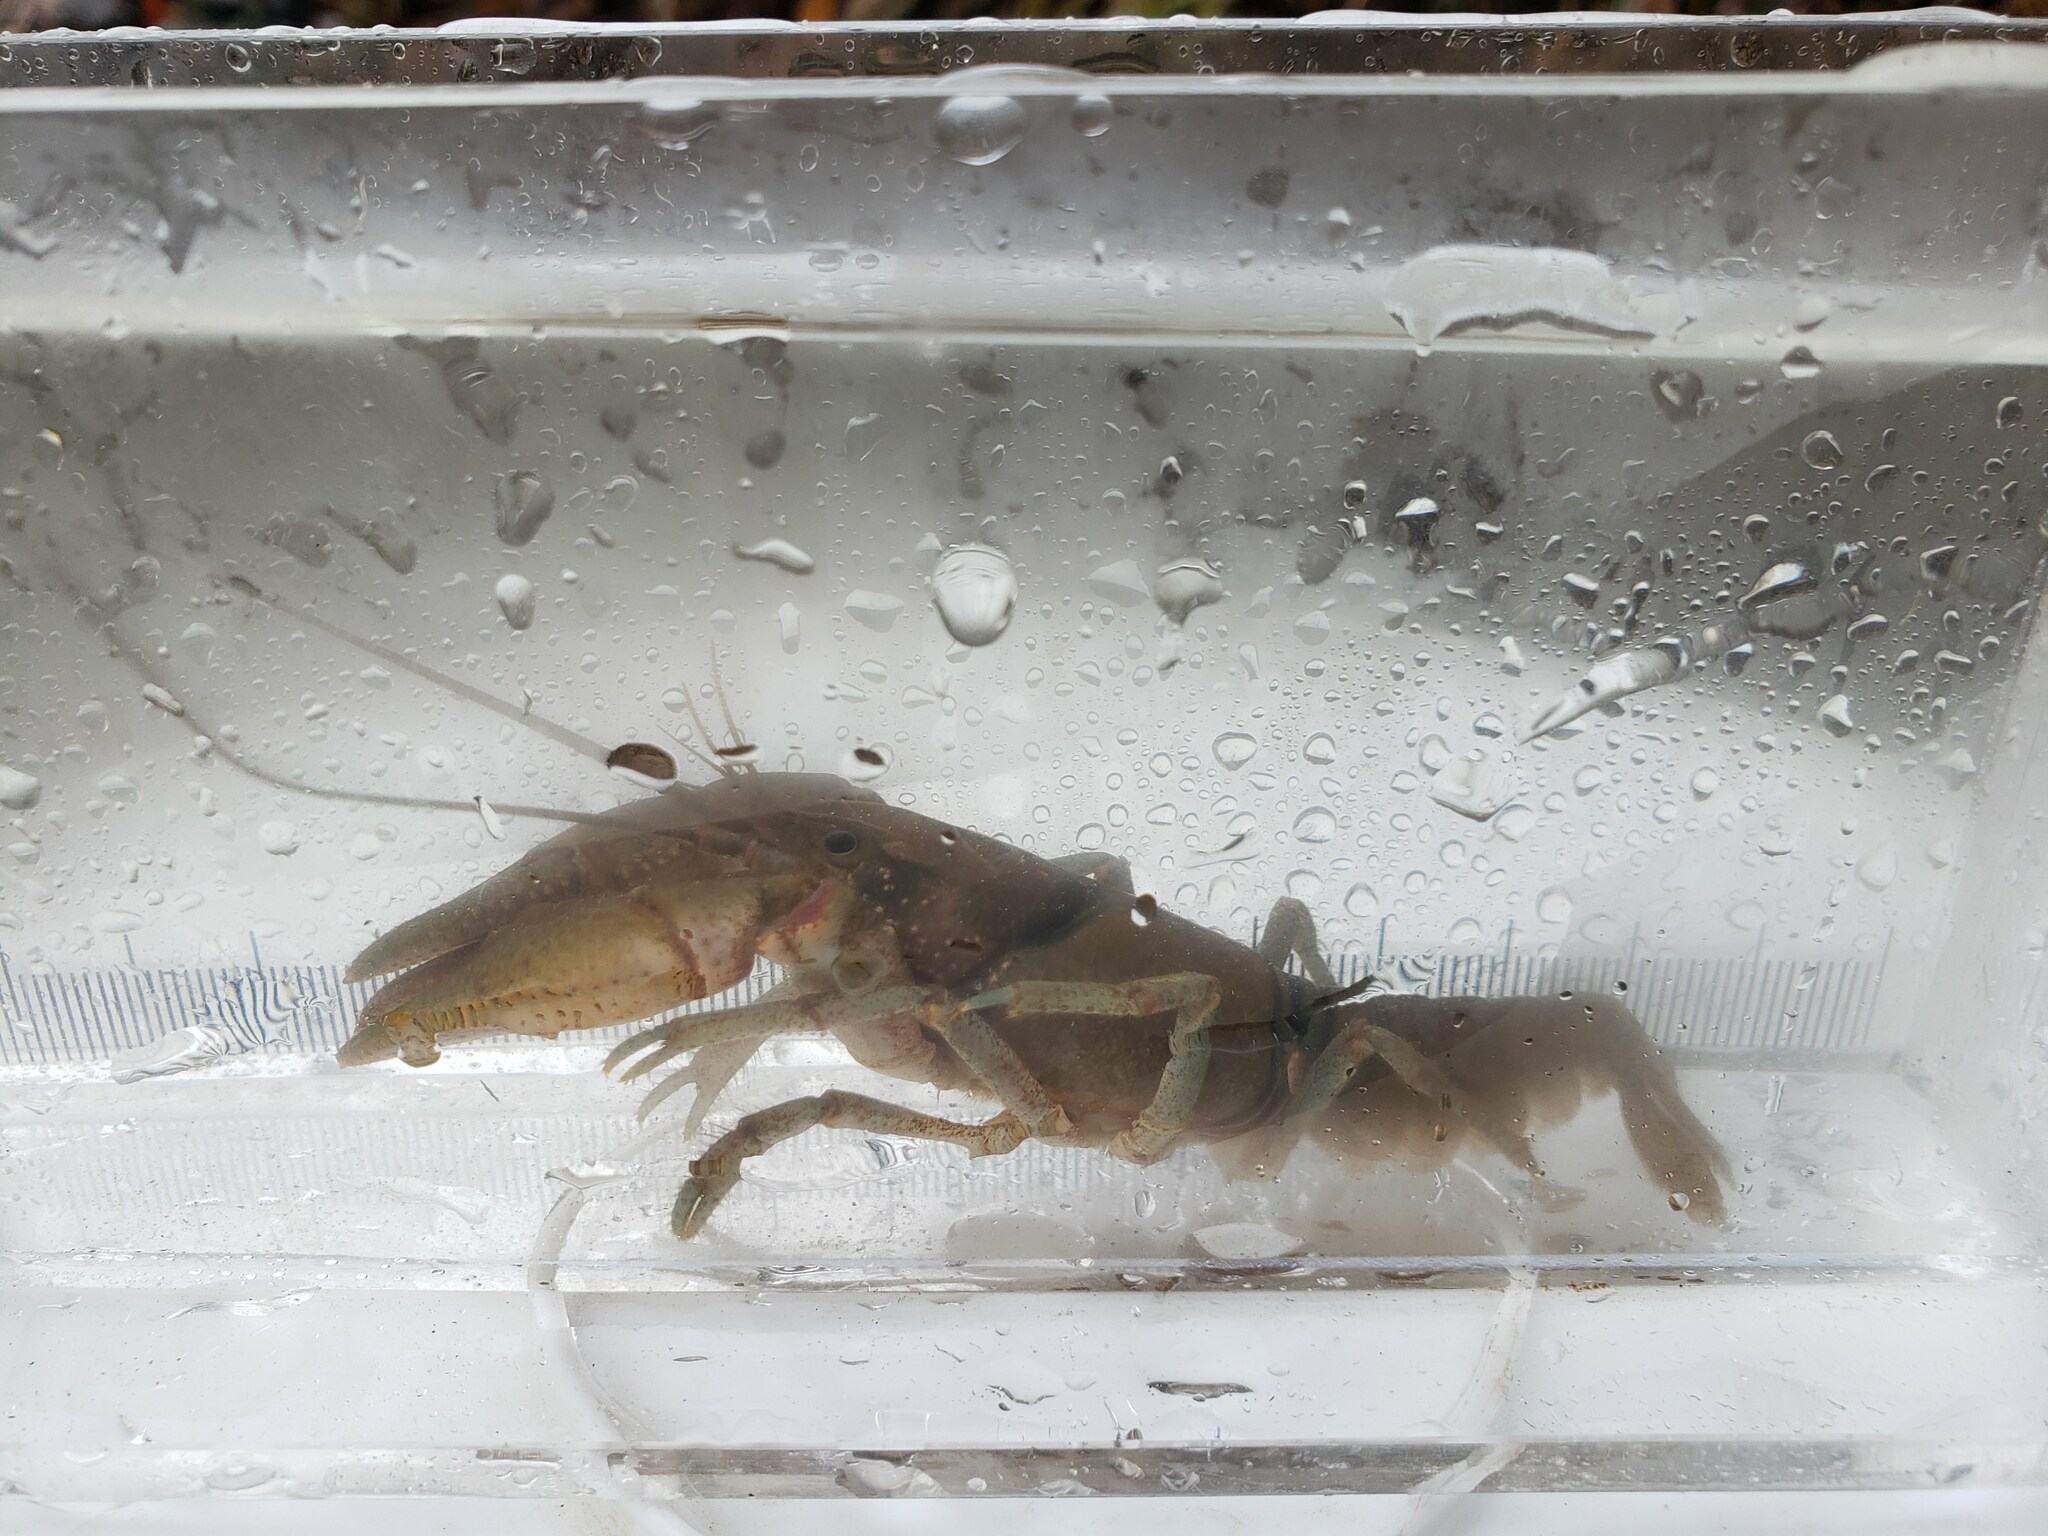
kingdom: Animalia
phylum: Arthropoda
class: Malacostraca
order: Decapoda
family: Cambaridae
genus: Cambarus
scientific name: Cambarus robustus
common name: Big water crayfish
